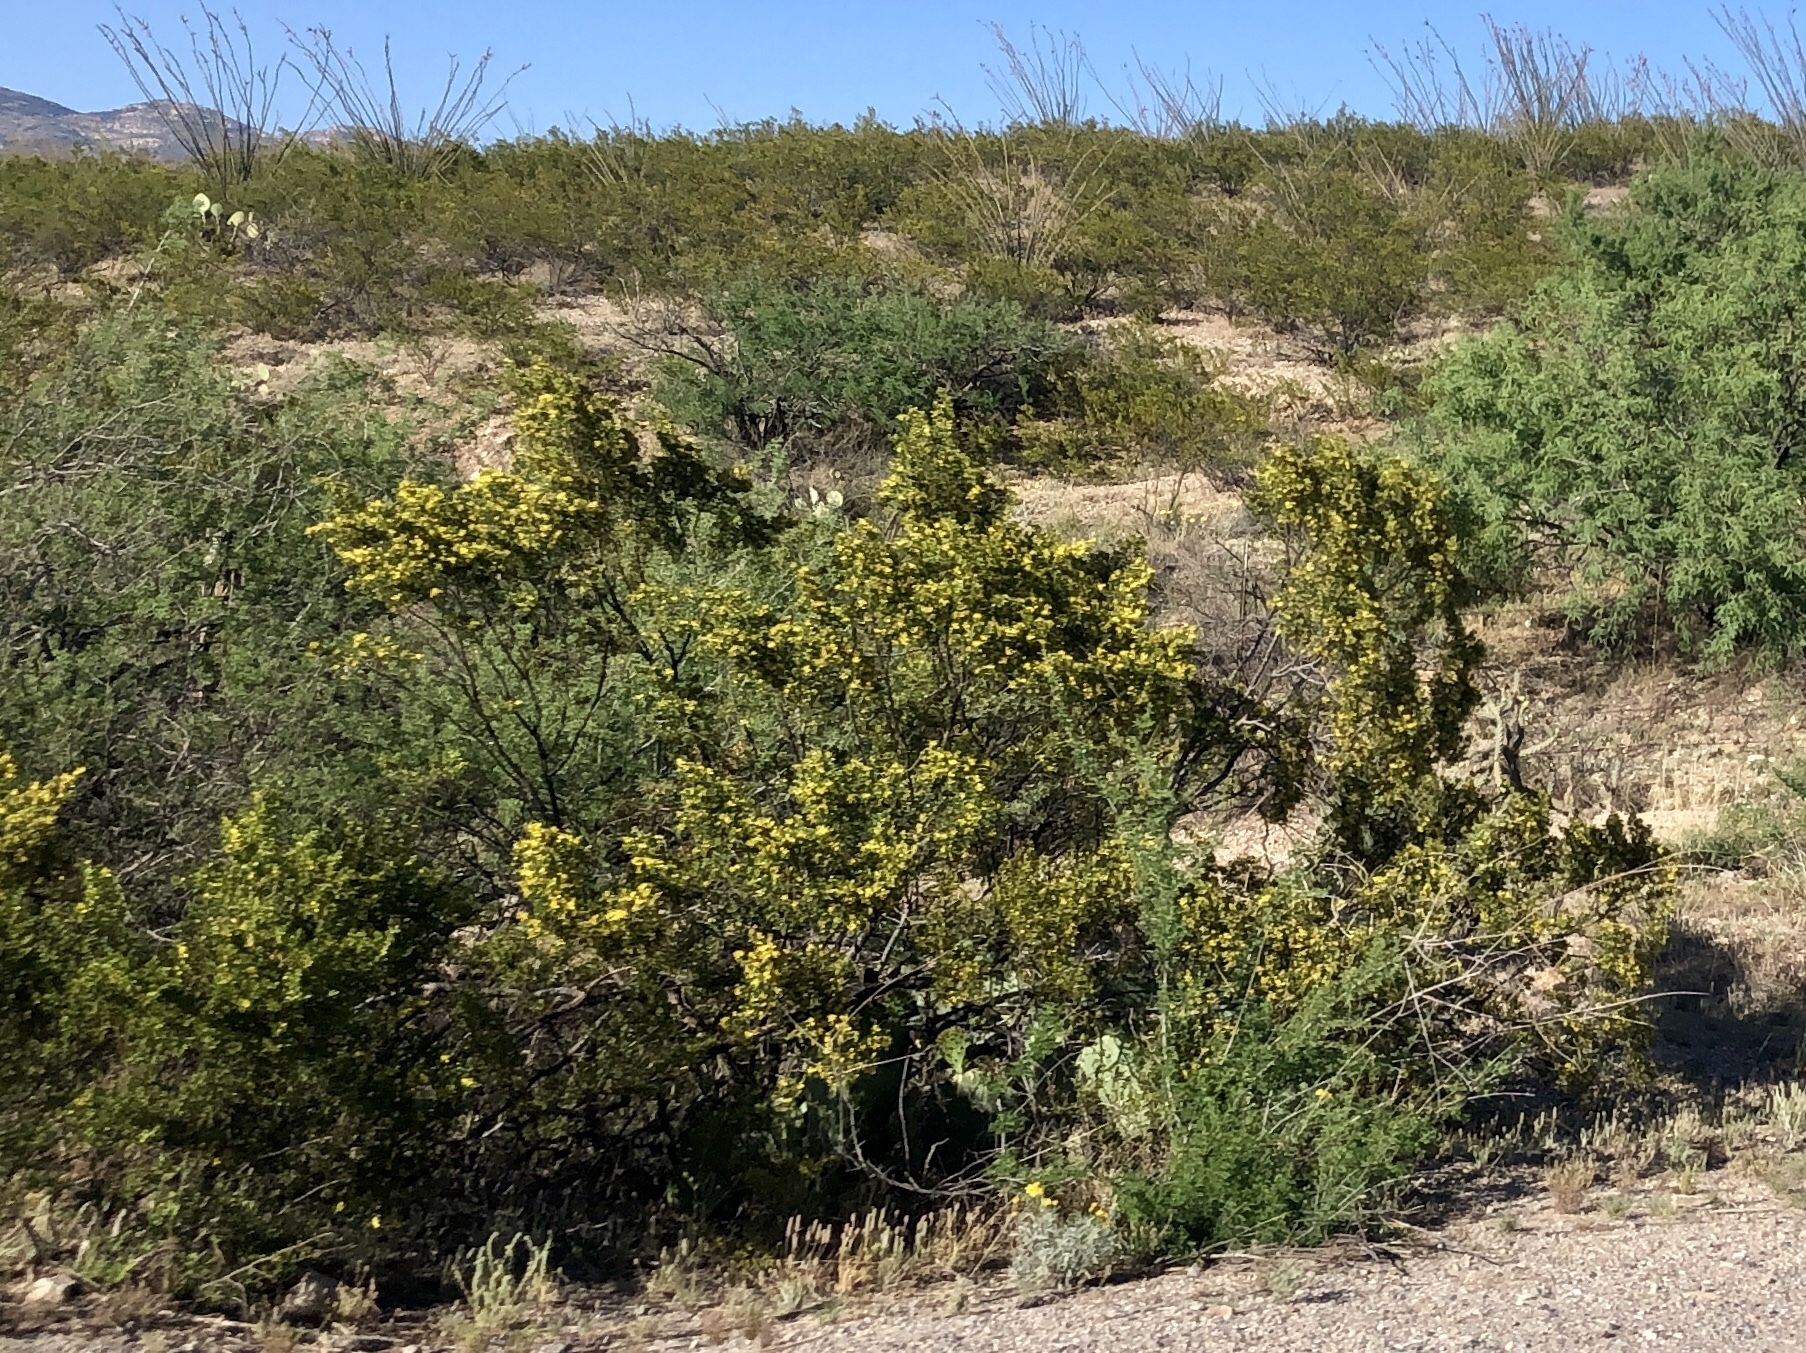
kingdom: Plantae
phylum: Tracheophyta
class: Magnoliopsida
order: Zygophyllales
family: Zygophyllaceae
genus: Larrea
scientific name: Larrea tridentata
